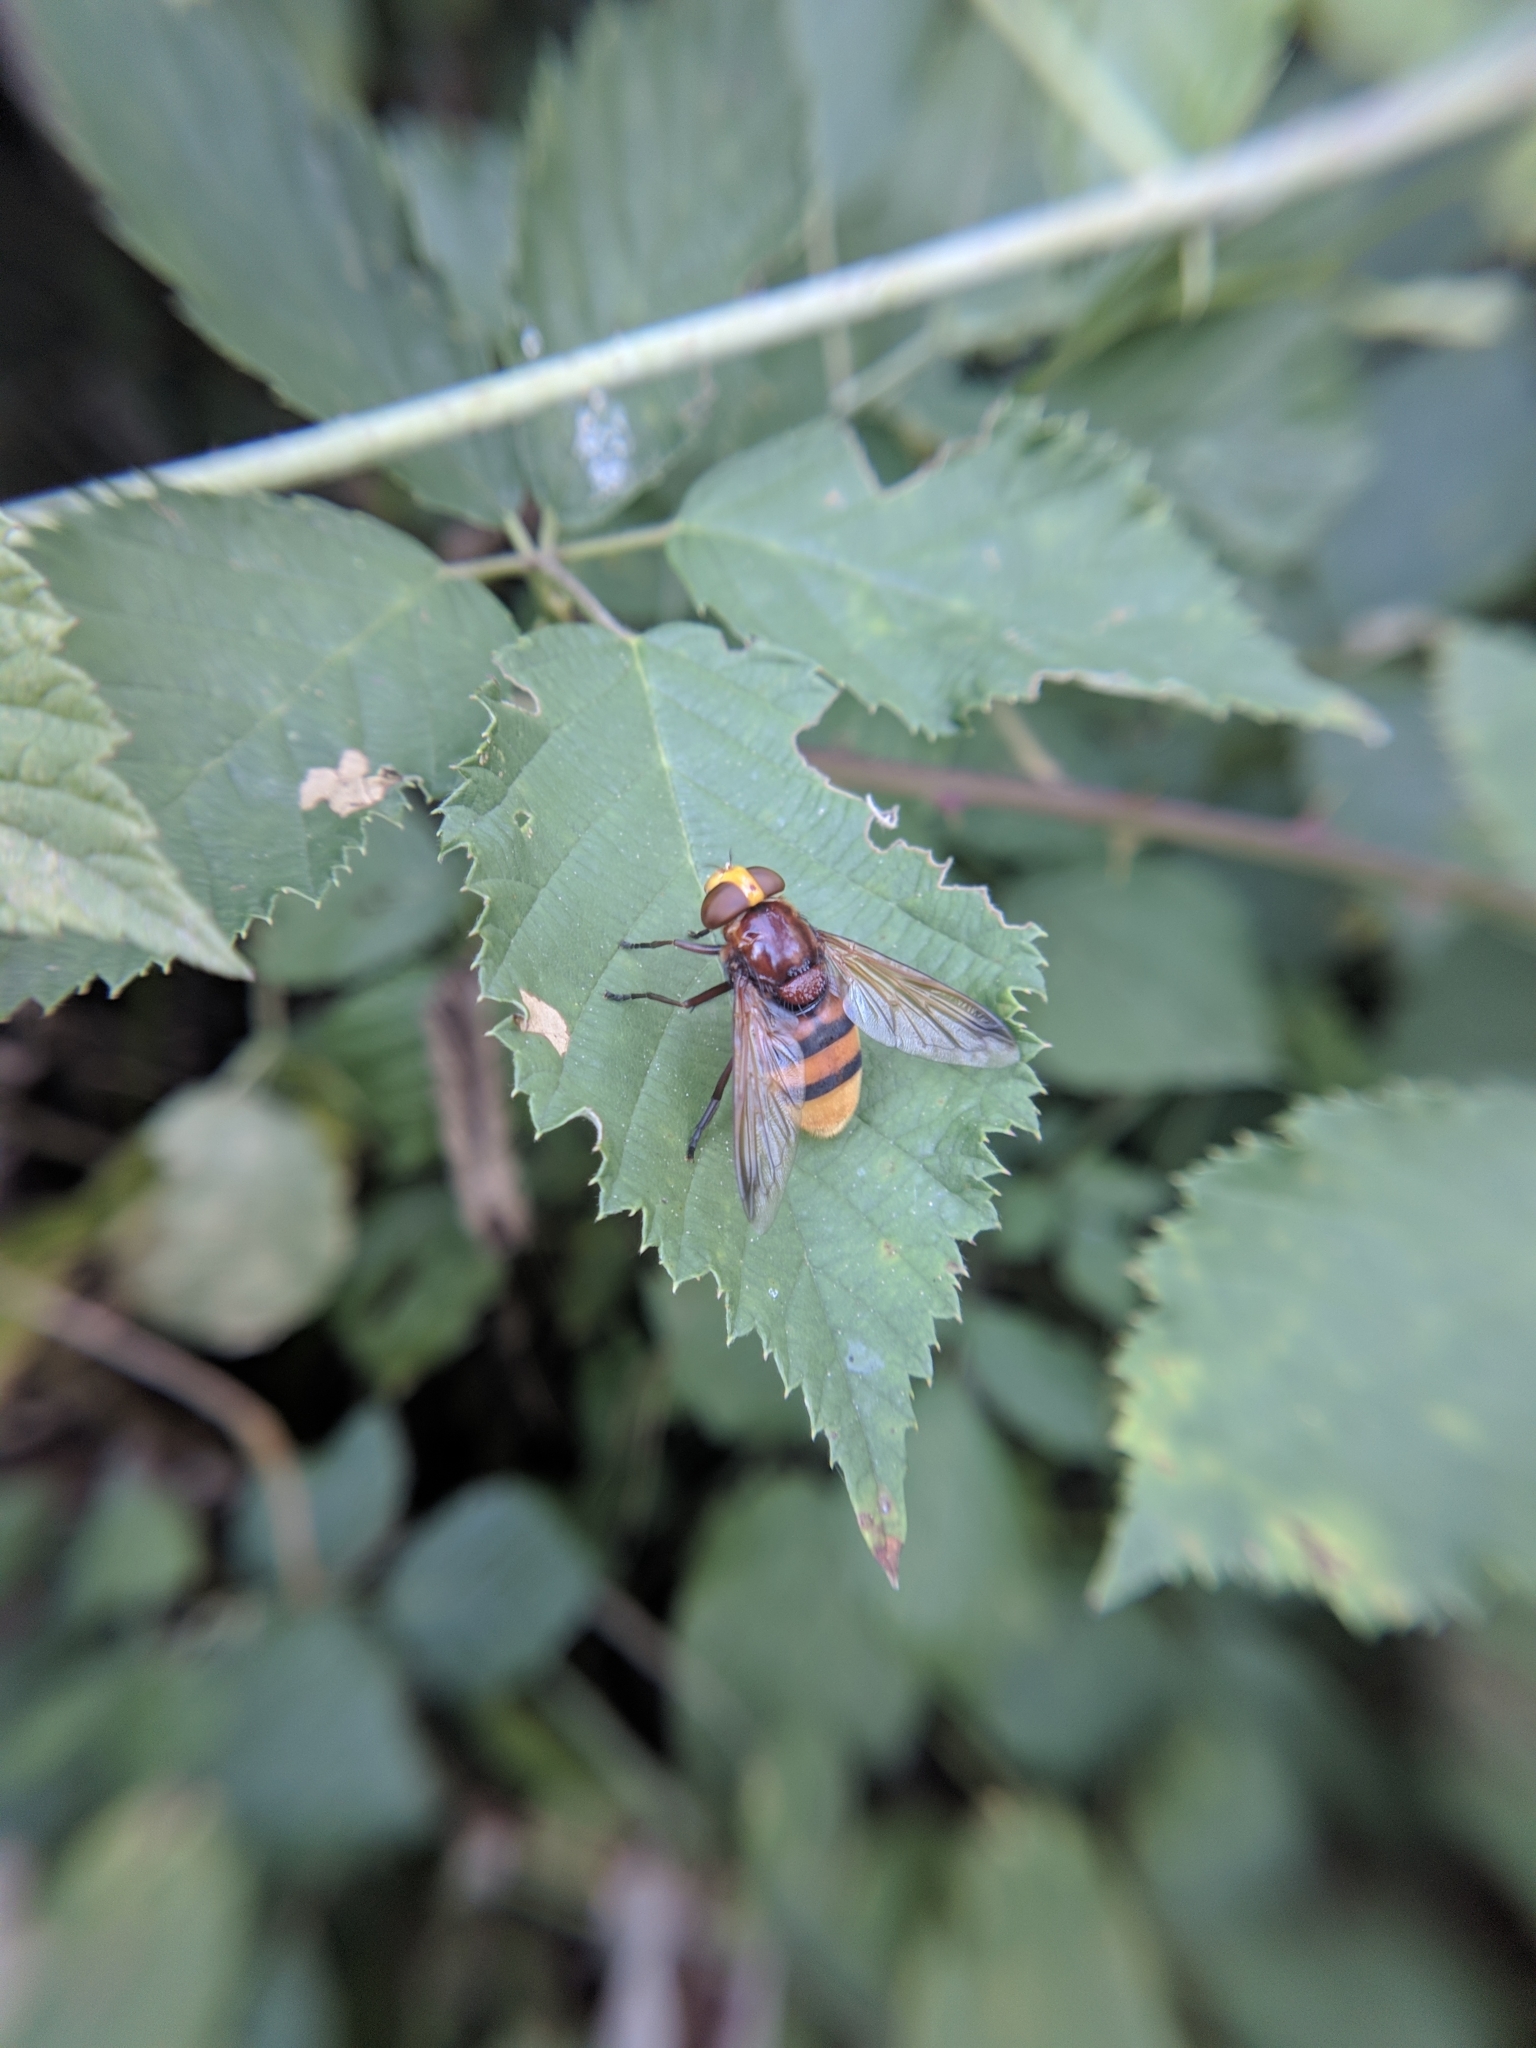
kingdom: Animalia
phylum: Arthropoda
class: Insecta
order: Diptera
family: Syrphidae
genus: Volucella
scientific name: Volucella zonaria
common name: Hornet hoverfly
